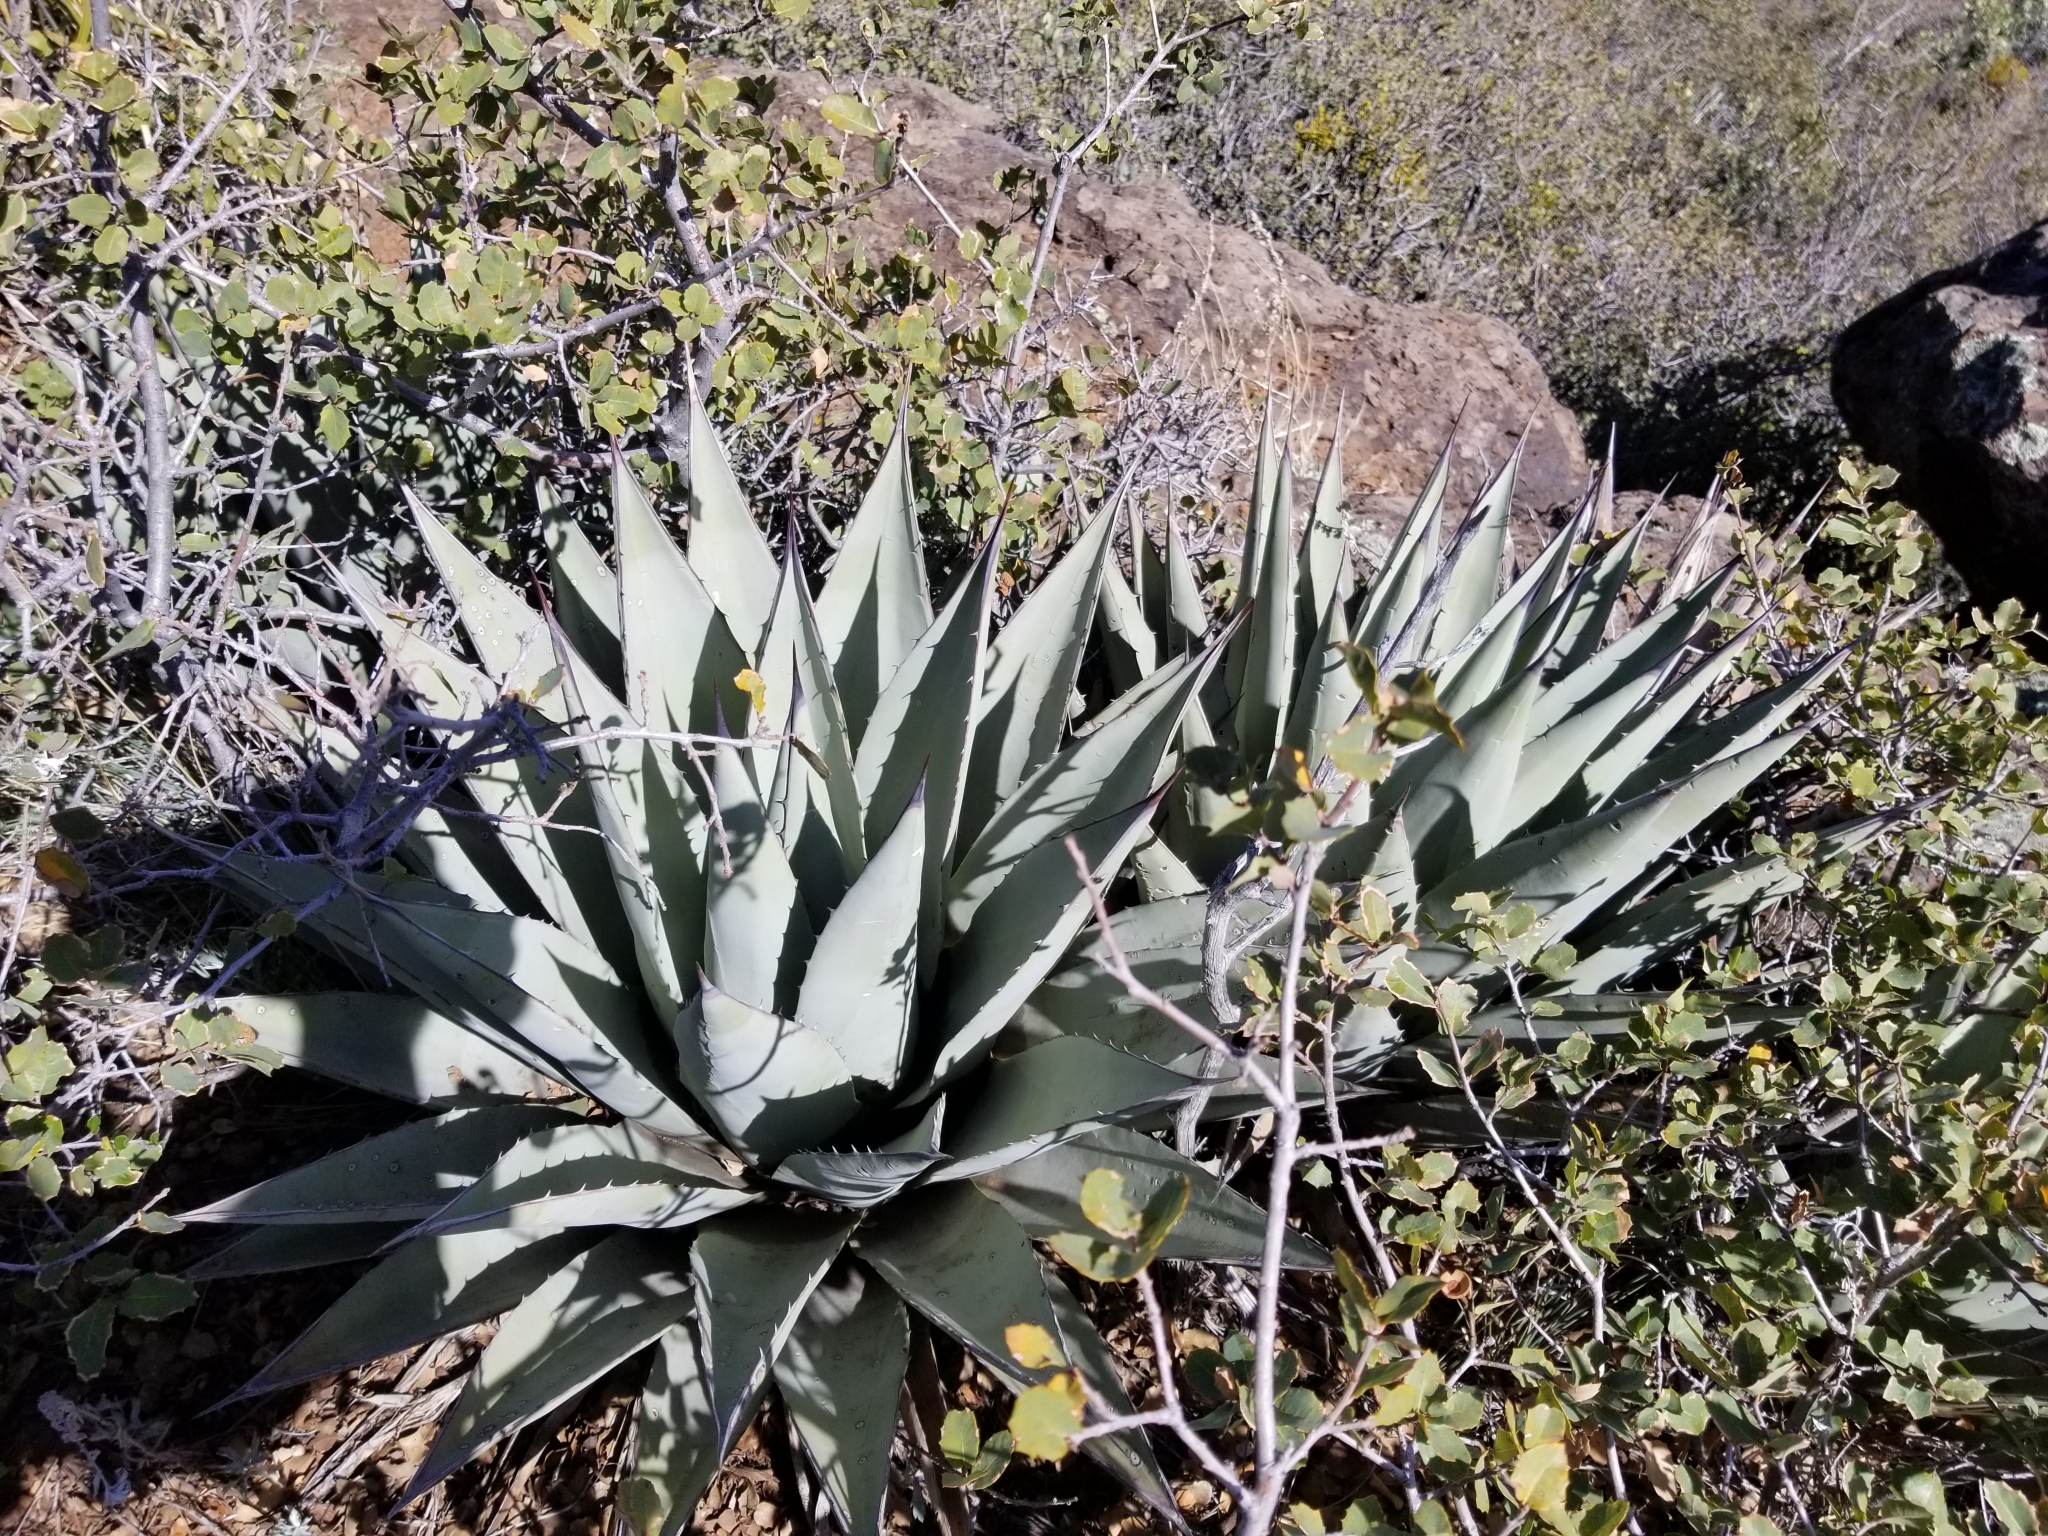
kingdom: Plantae
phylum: Tracheophyta
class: Liliopsida
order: Asparagales
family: Asparagaceae
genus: Agave
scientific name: Agave parryi
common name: Parry's agave
